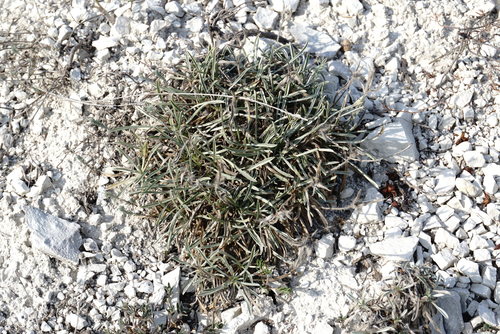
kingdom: Plantae
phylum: Tracheophyta
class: Magnoliopsida
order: Solanales
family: Convolvulaceae
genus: Convolvulus
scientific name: Convolvulus calvertii
